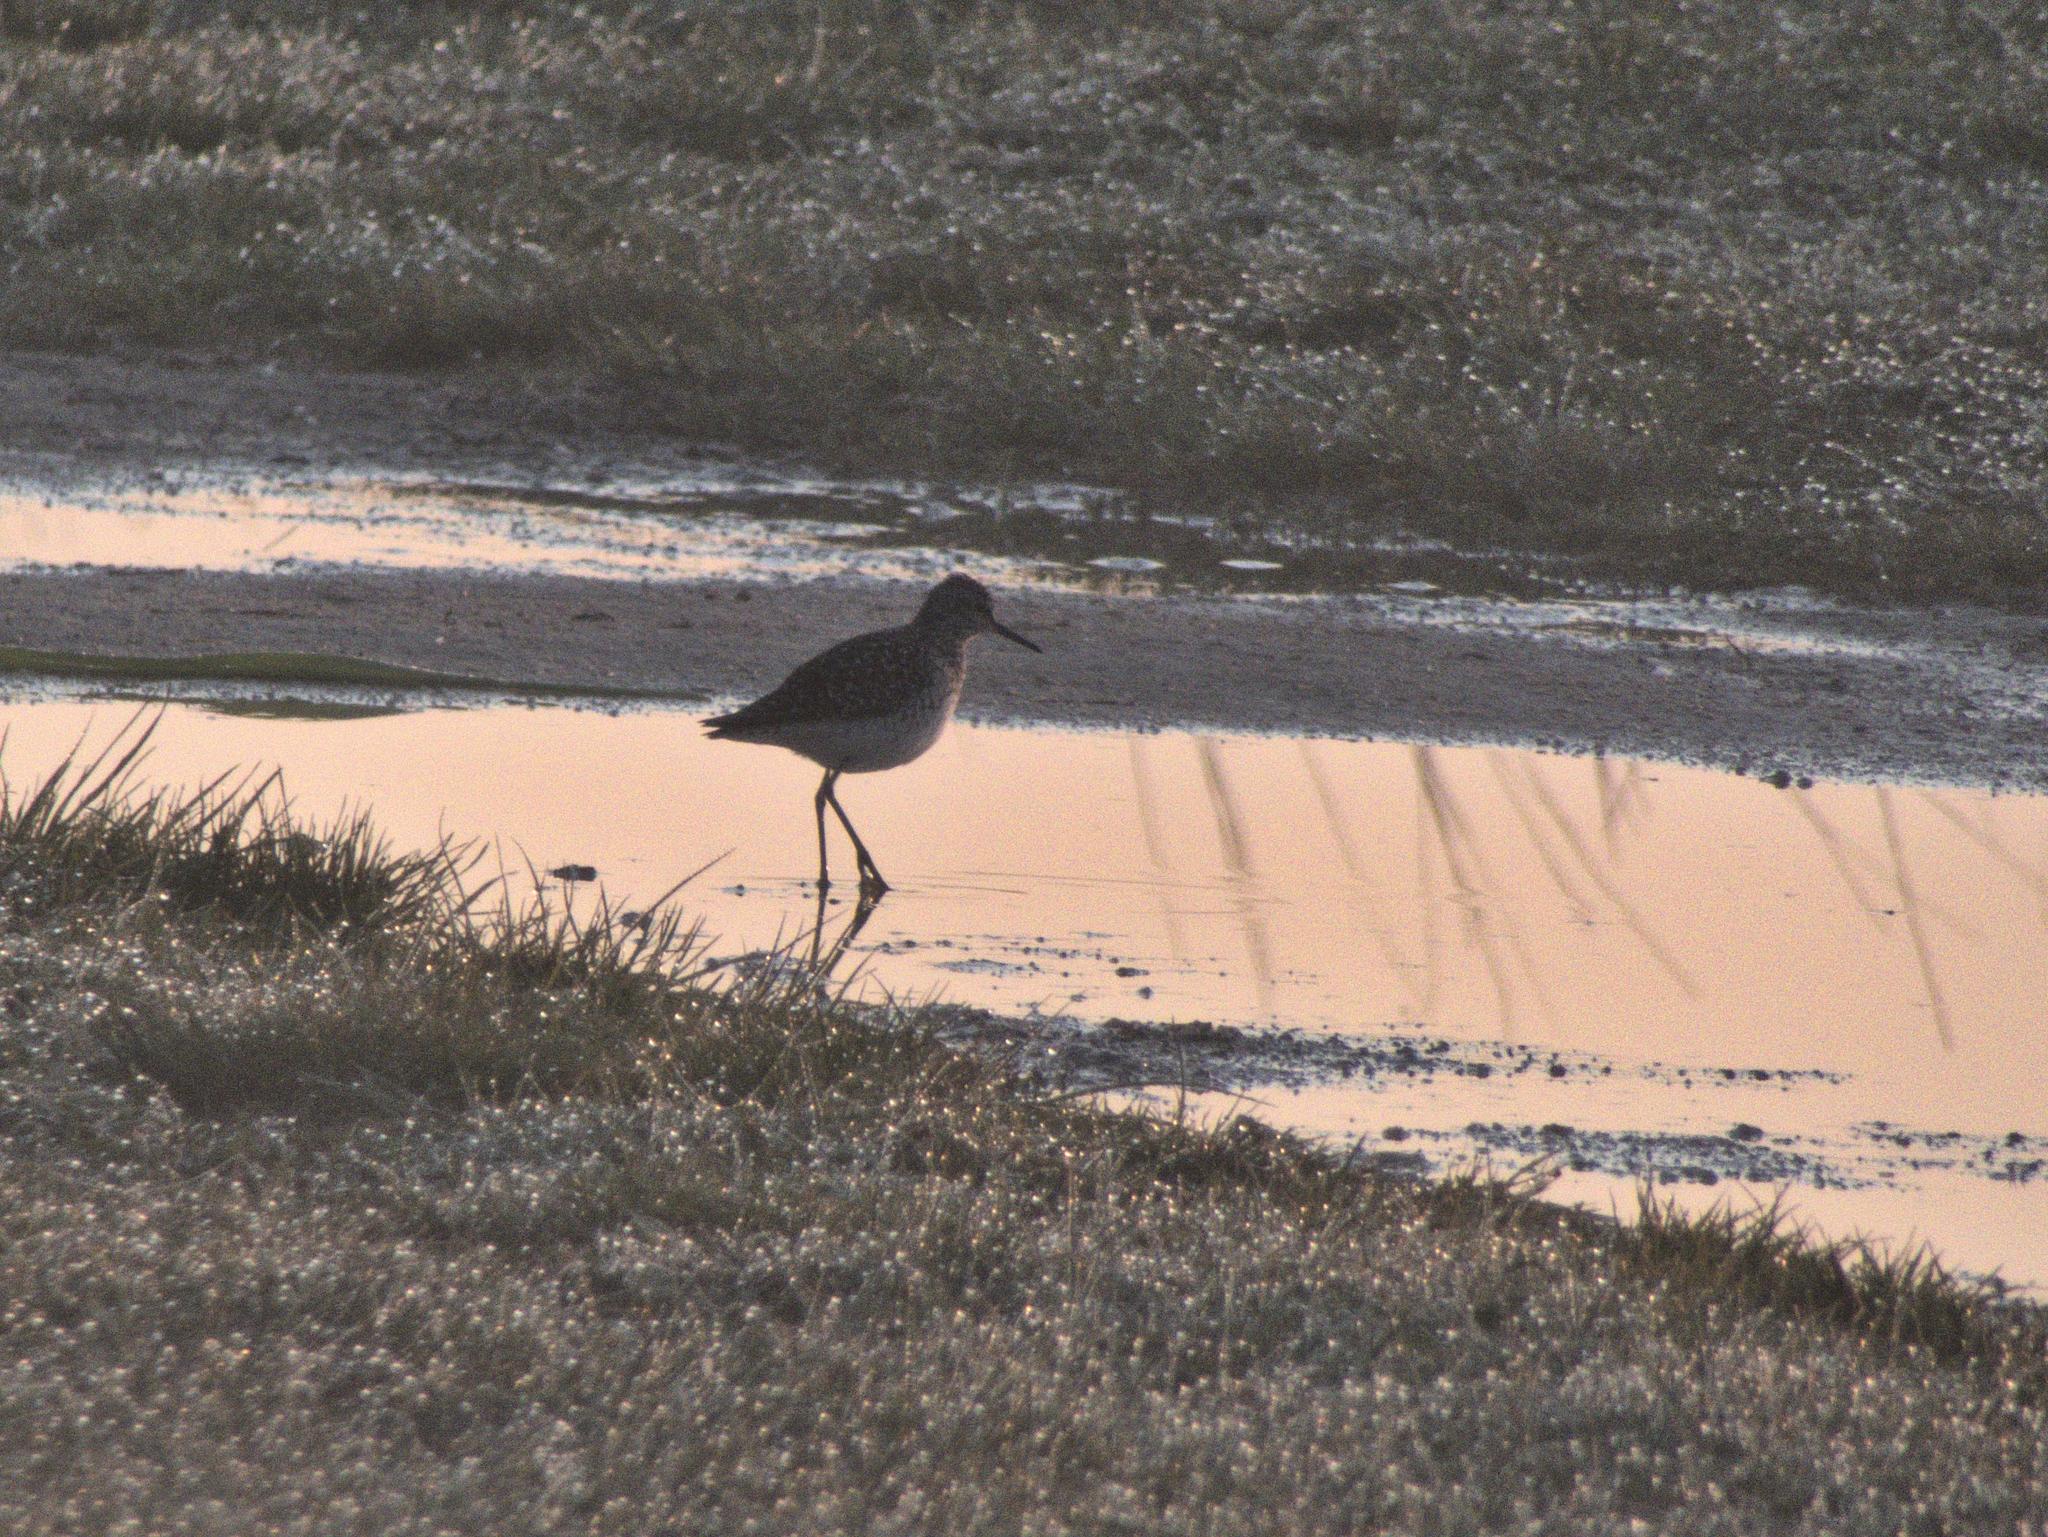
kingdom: Animalia
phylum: Chordata
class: Aves
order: Charadriiformes
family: Scolopacidae
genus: Tringa
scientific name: Tringa glareola
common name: Wood sandpiper
